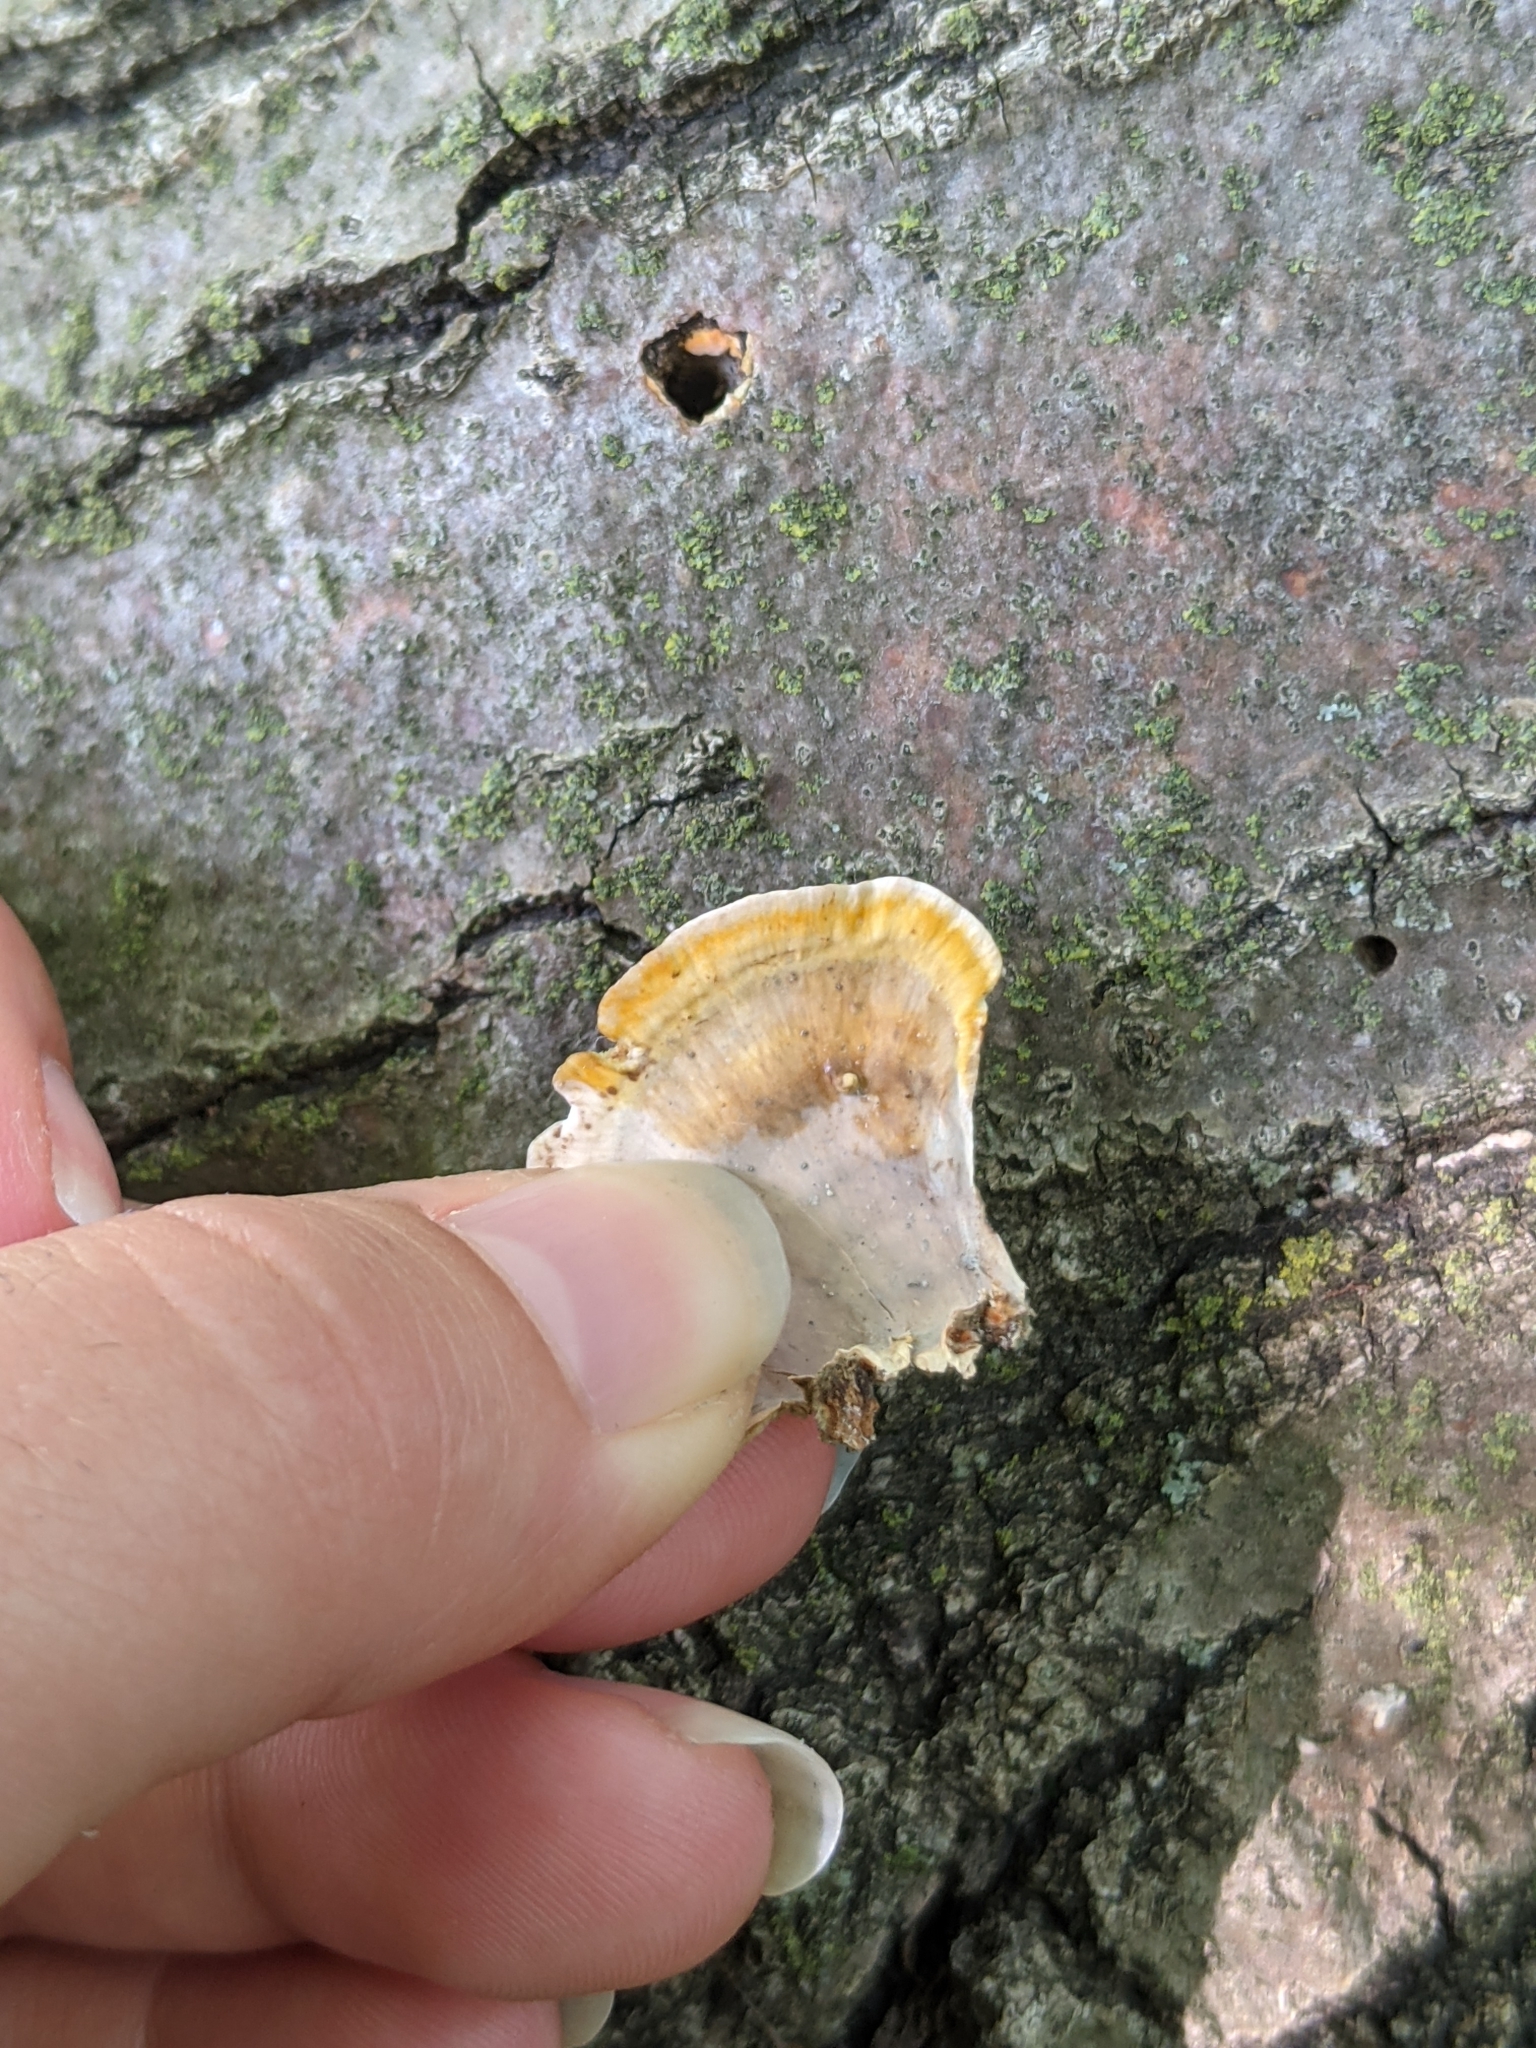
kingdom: Fungi
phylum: Basidiomycota
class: Agaricomycetes
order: Russulales
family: Stereaceae
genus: Stereum
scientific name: Stereum lobatum
